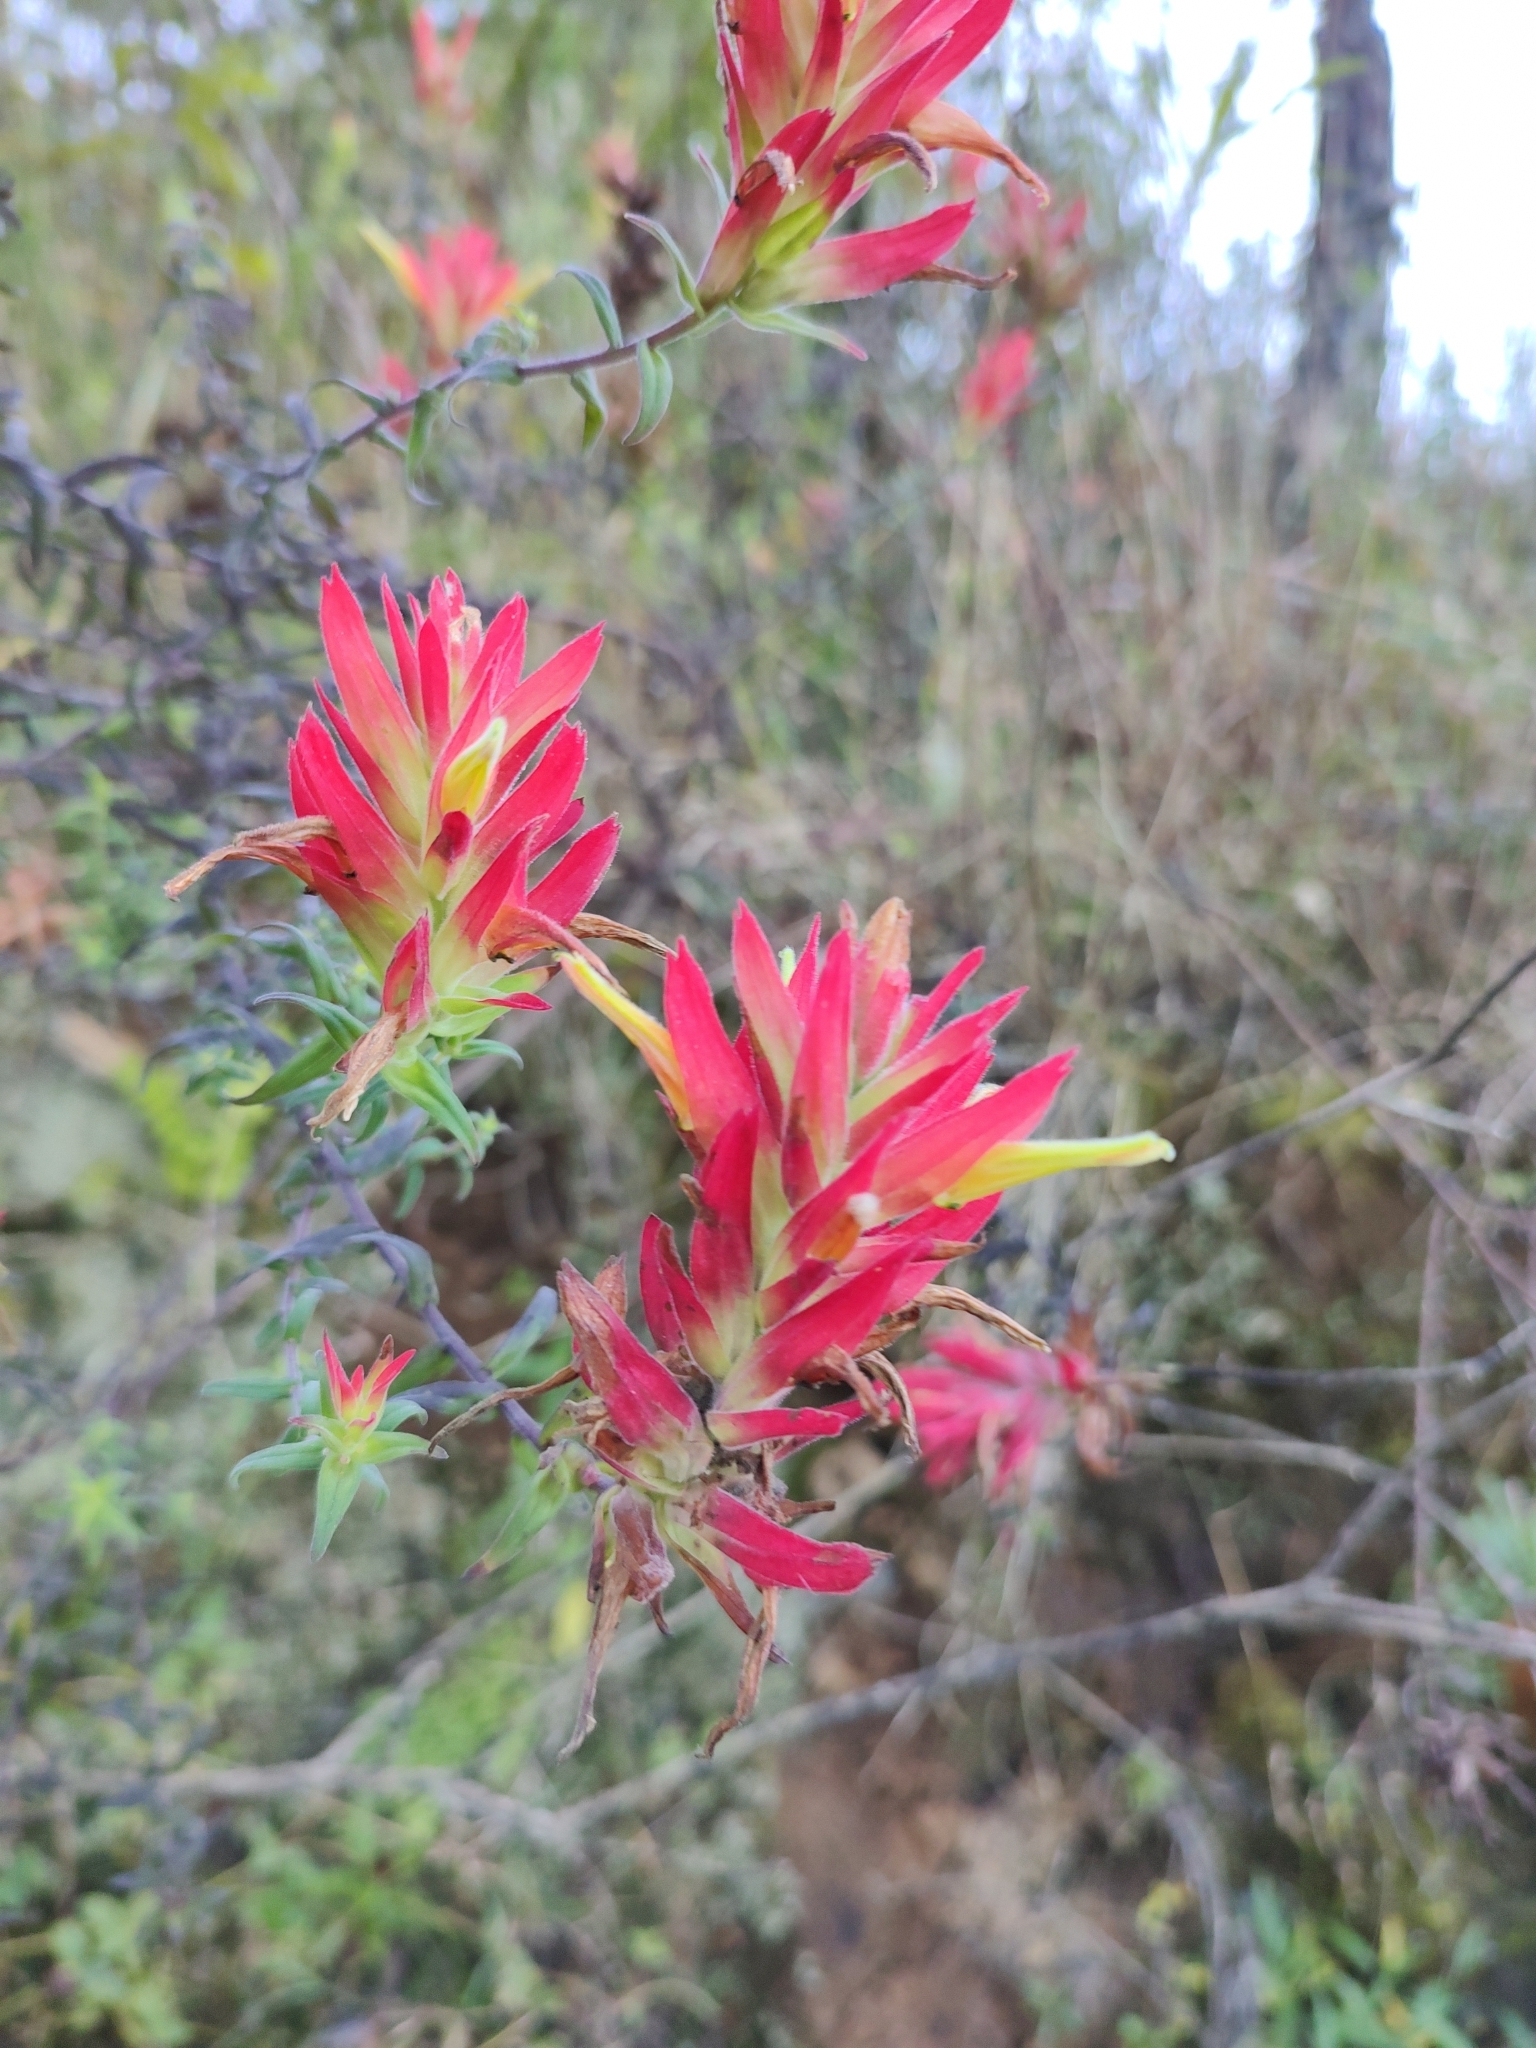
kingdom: Plantae
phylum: Tracheophyta
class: Magnoliopsida
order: Lamiales
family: Orobanchaceae
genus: Castilleja
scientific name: Castilleja tenuiflora
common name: Santa catalina indian paintbrush
